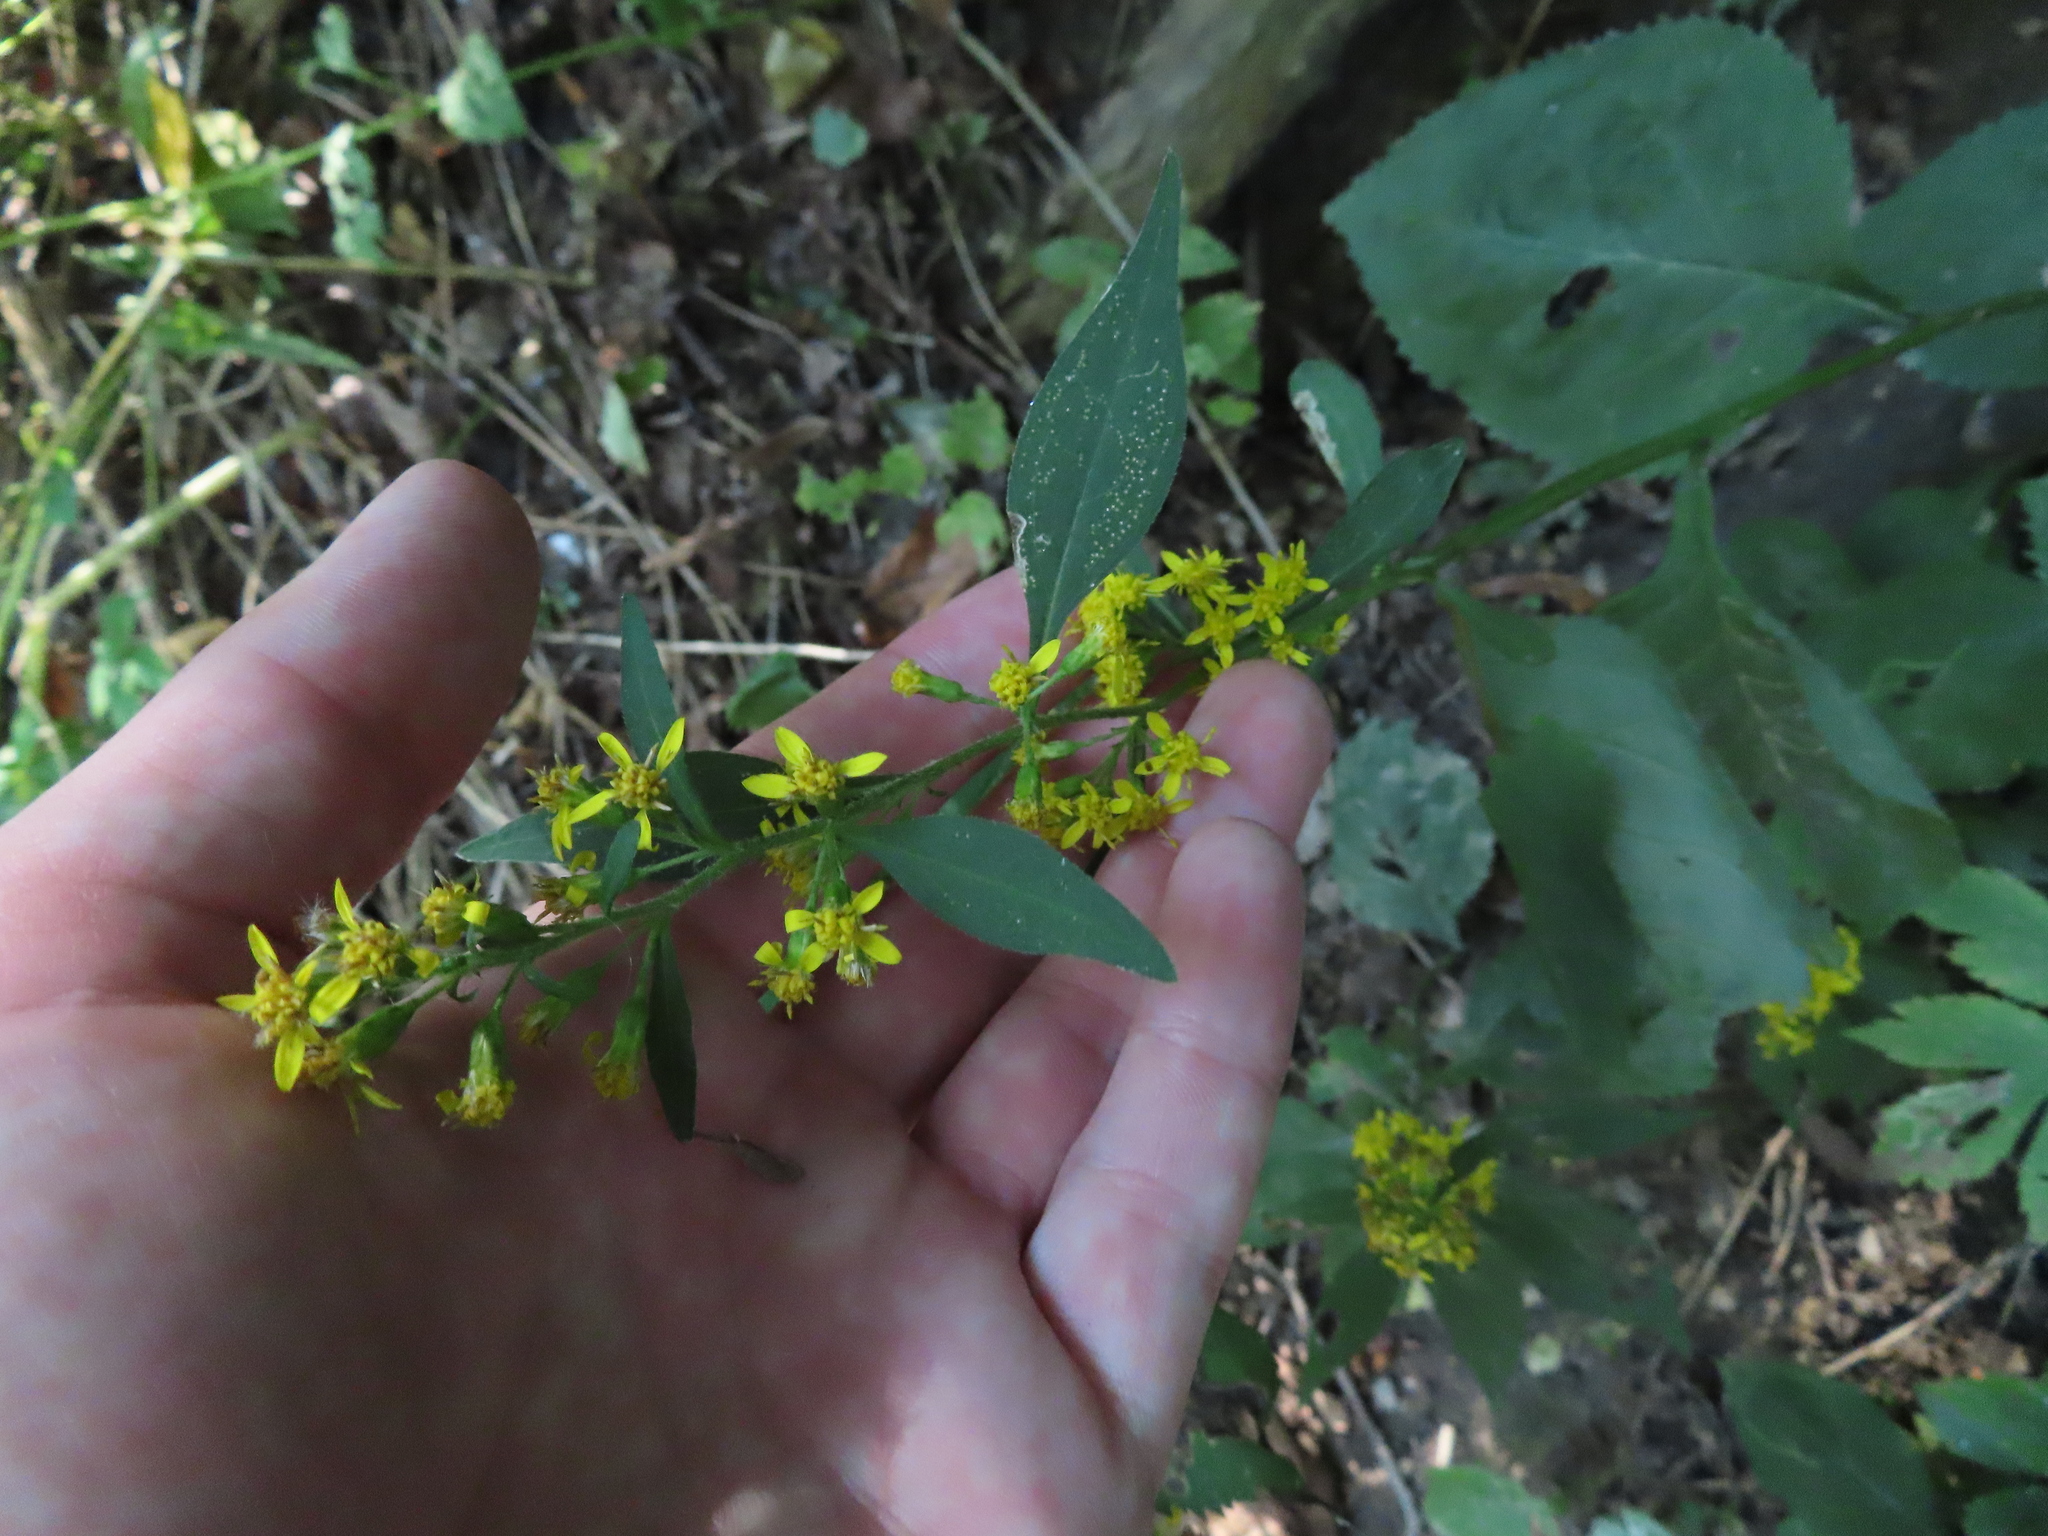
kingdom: Plantae
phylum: Tracheophyta
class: Magnoliopsida
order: Asterales
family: Asteraceae
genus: Solidago
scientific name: Solidago flexicaulis
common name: Zig-zag goldenrod
